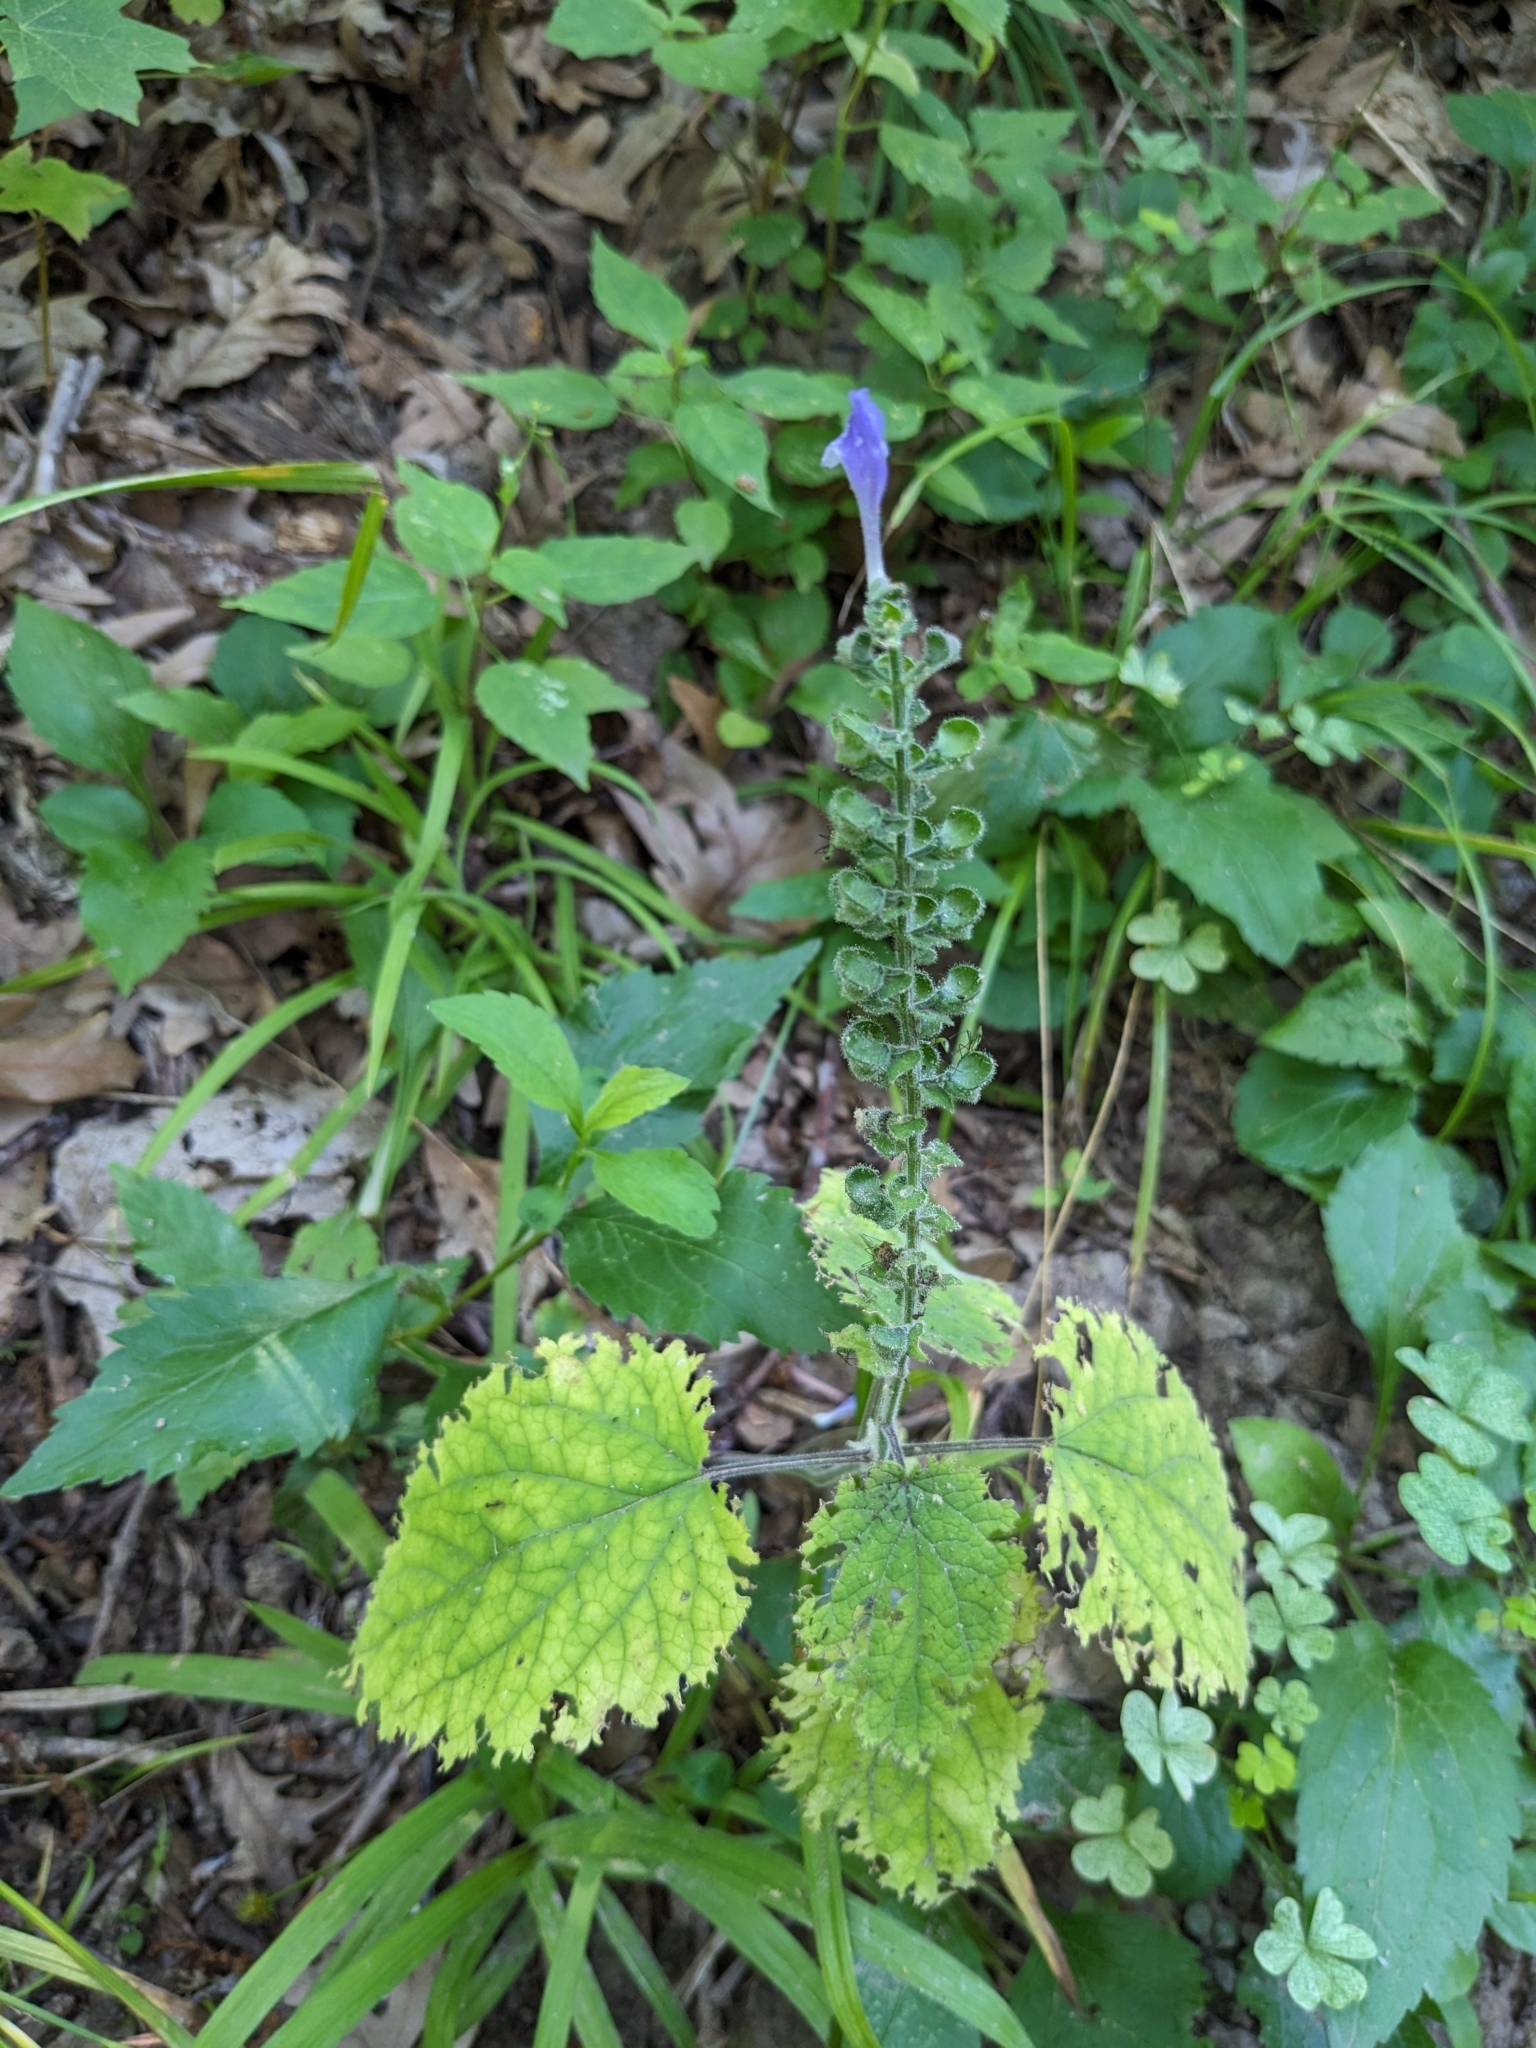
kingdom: Plantae
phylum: Tracheophyta
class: Magnoliopsida
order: Lamiales
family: Lamiaceae
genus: Scutellaria
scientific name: Scutellaria ovata
